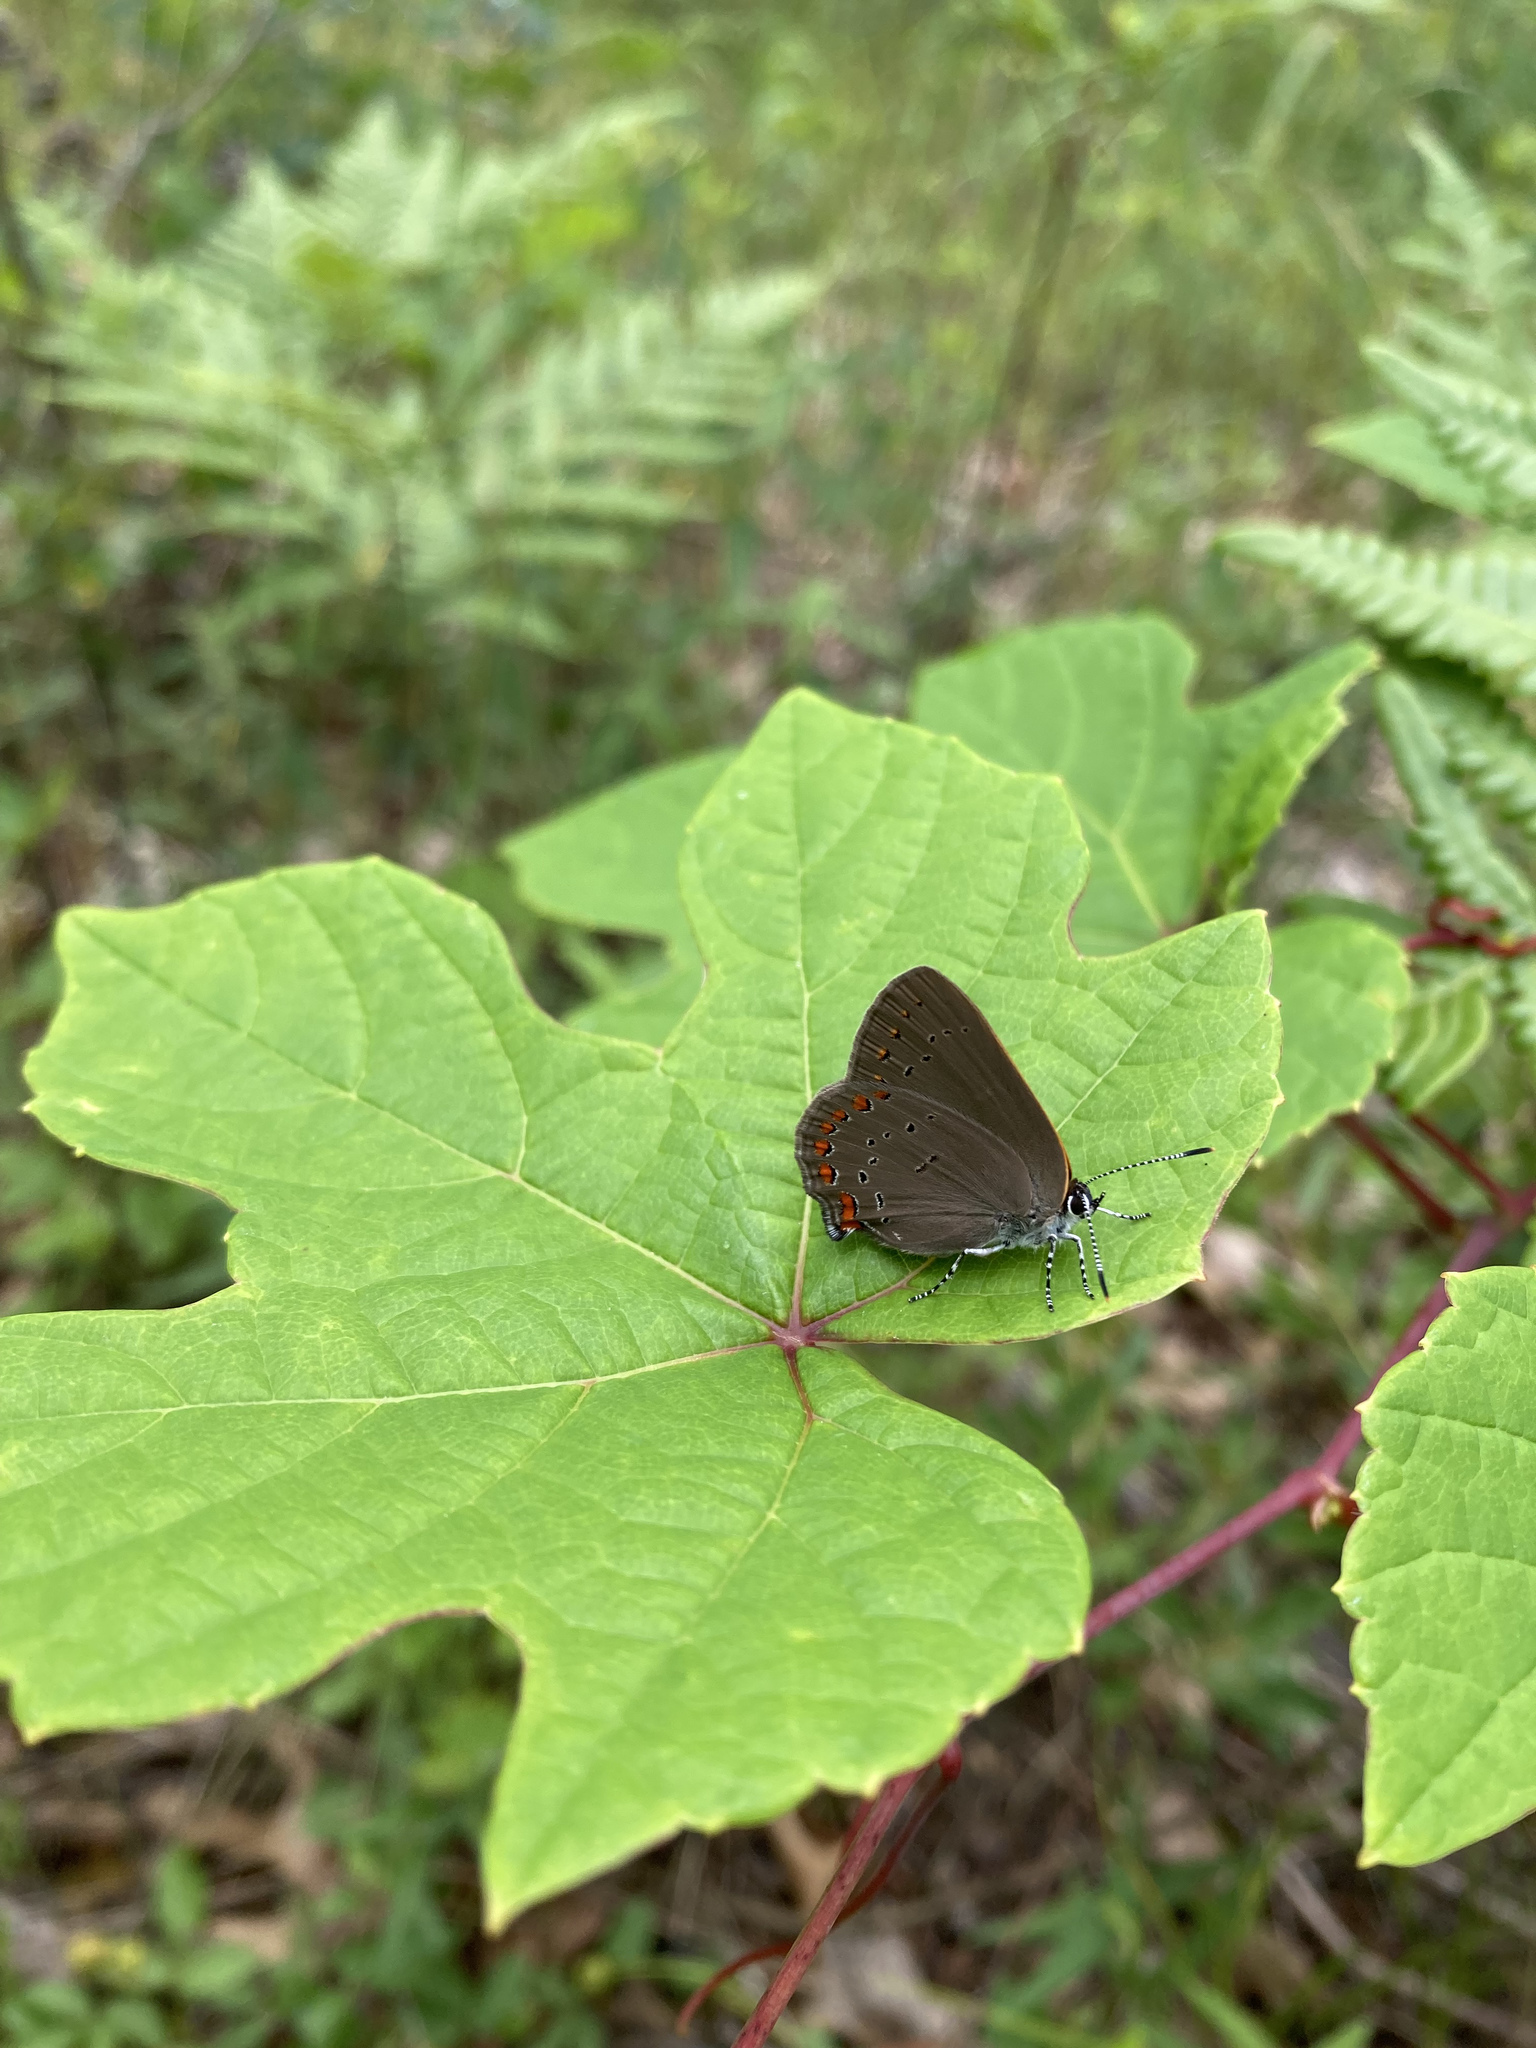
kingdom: Animalia
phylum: Arthropoda
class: Insecta
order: Lepidoptera
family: Lycaenidae
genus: Harkenclenus
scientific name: Harkenclenus titus
